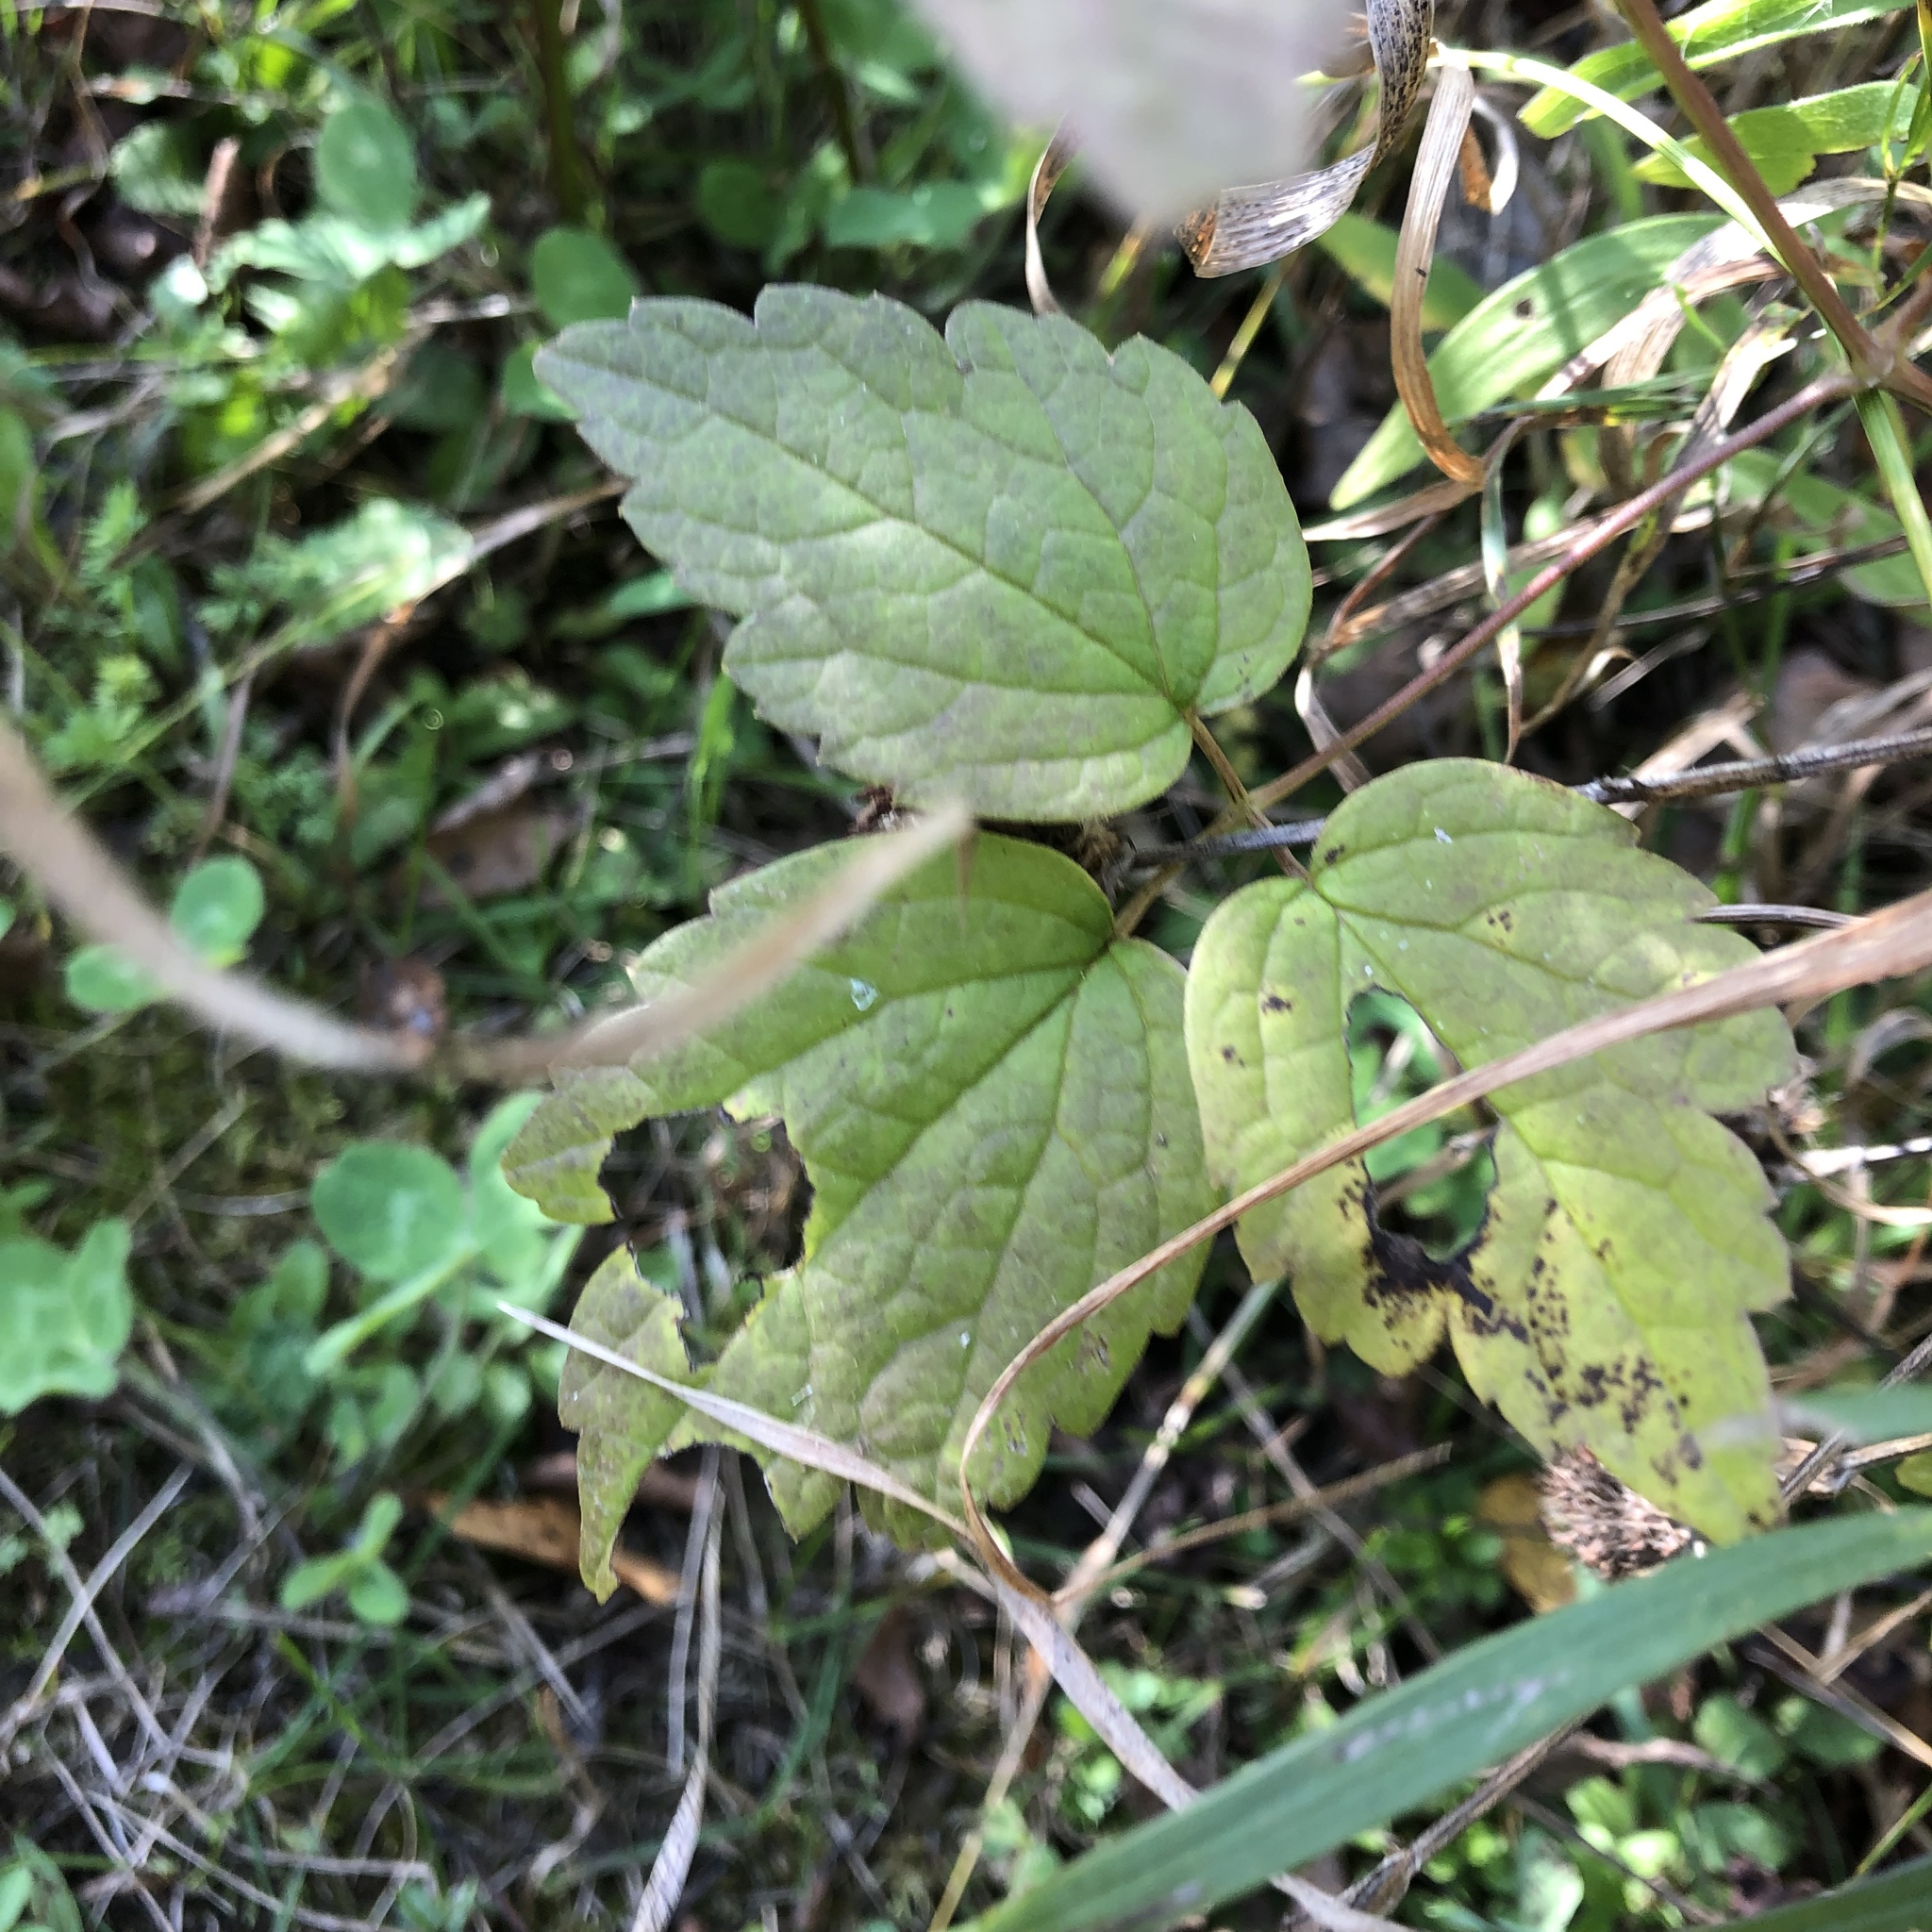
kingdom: Plantae
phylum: Tracheophyta
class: Magnoliopsida
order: Ranunculales
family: Ranunculaceae
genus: Clematis
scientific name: Clematis virginiana
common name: Virgin's-bower
